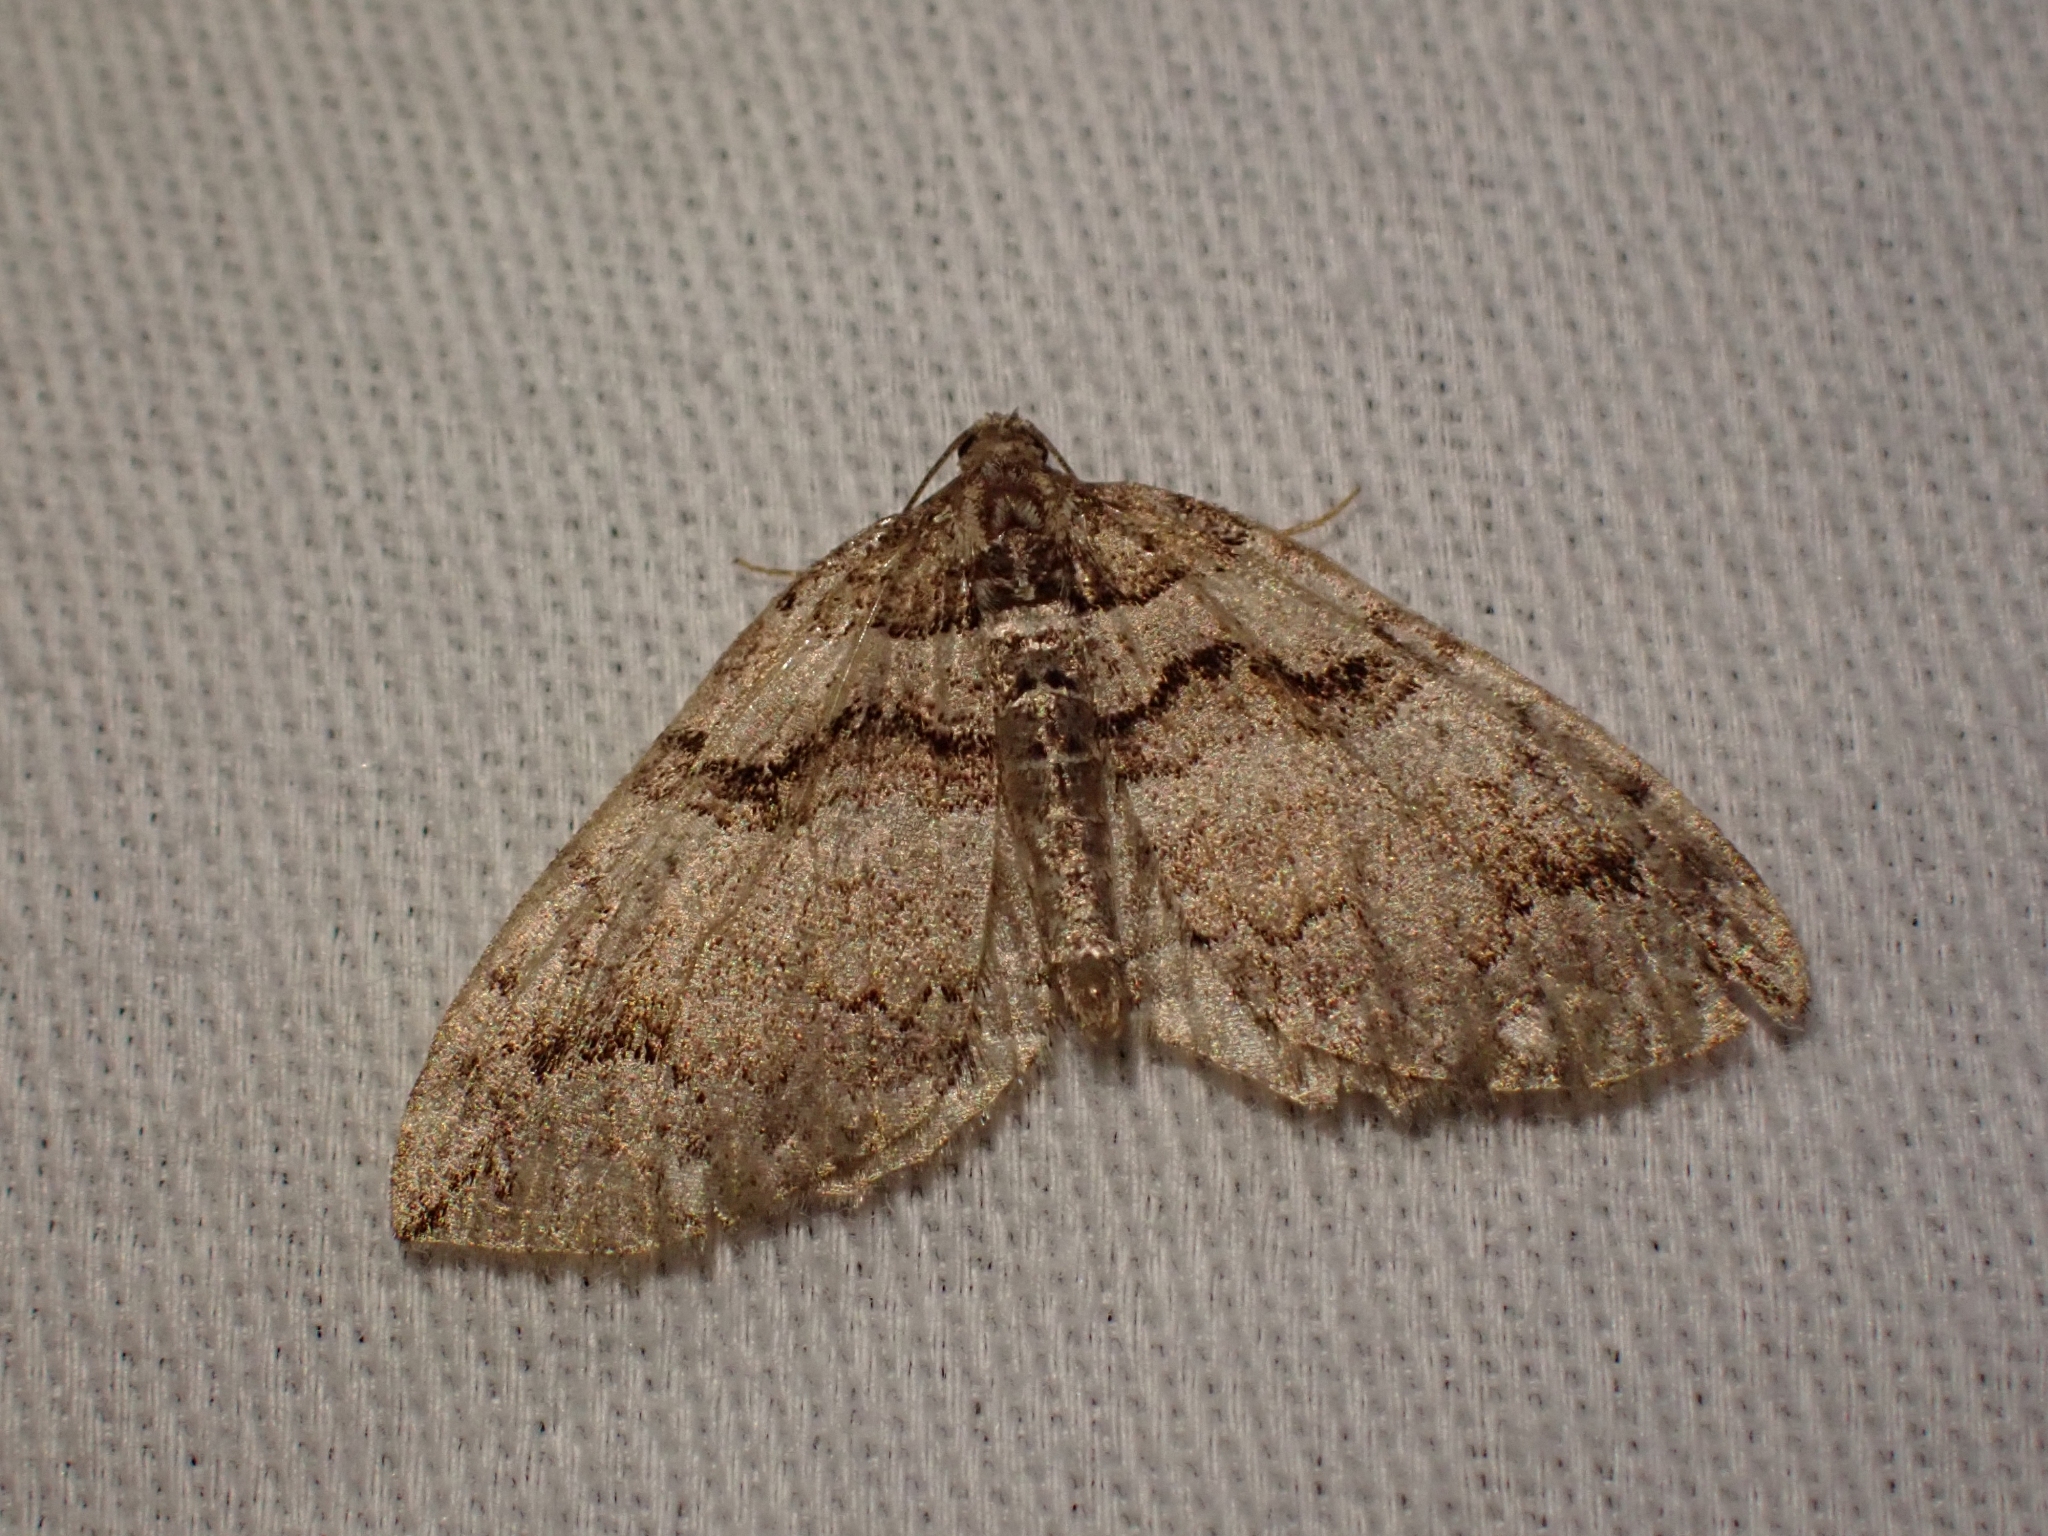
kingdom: Animalia
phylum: Arthropoda
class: Insecta
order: Lepidoptera
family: Geometridae
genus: Anticlea
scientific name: Anticlea vasiliata
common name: Variable carpet
